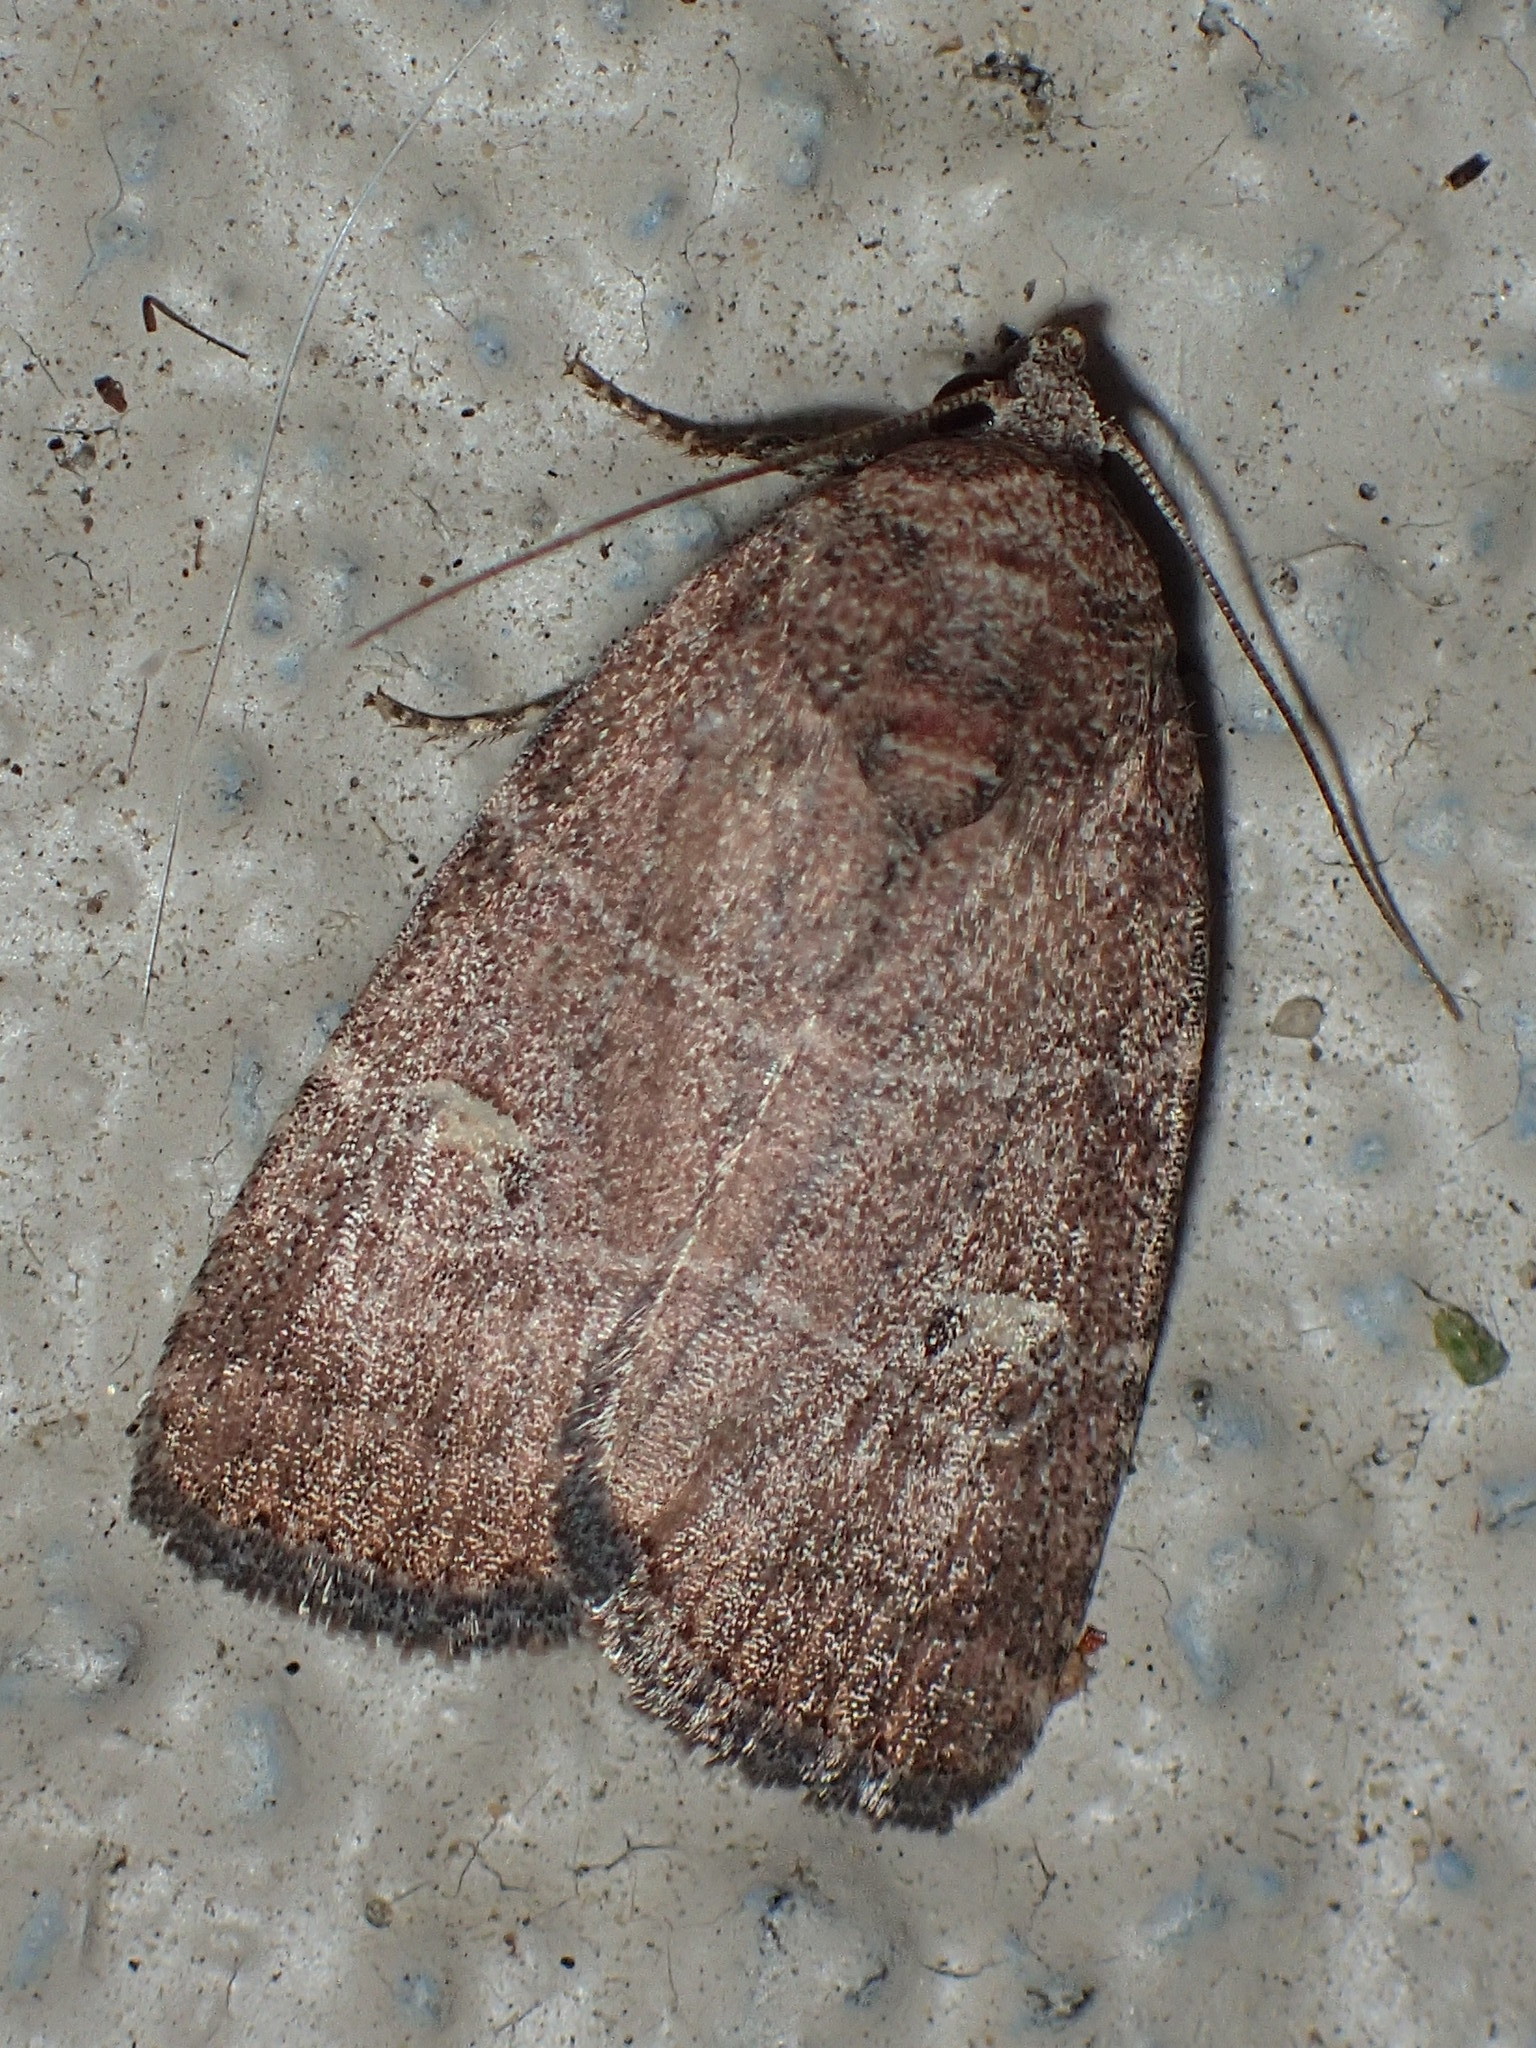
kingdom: Animalia
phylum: Arthropoda
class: Insecta
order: Lepidoptera
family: Noctuidae
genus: Elaphria
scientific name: Elaphria grata
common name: Grateful midget moth
